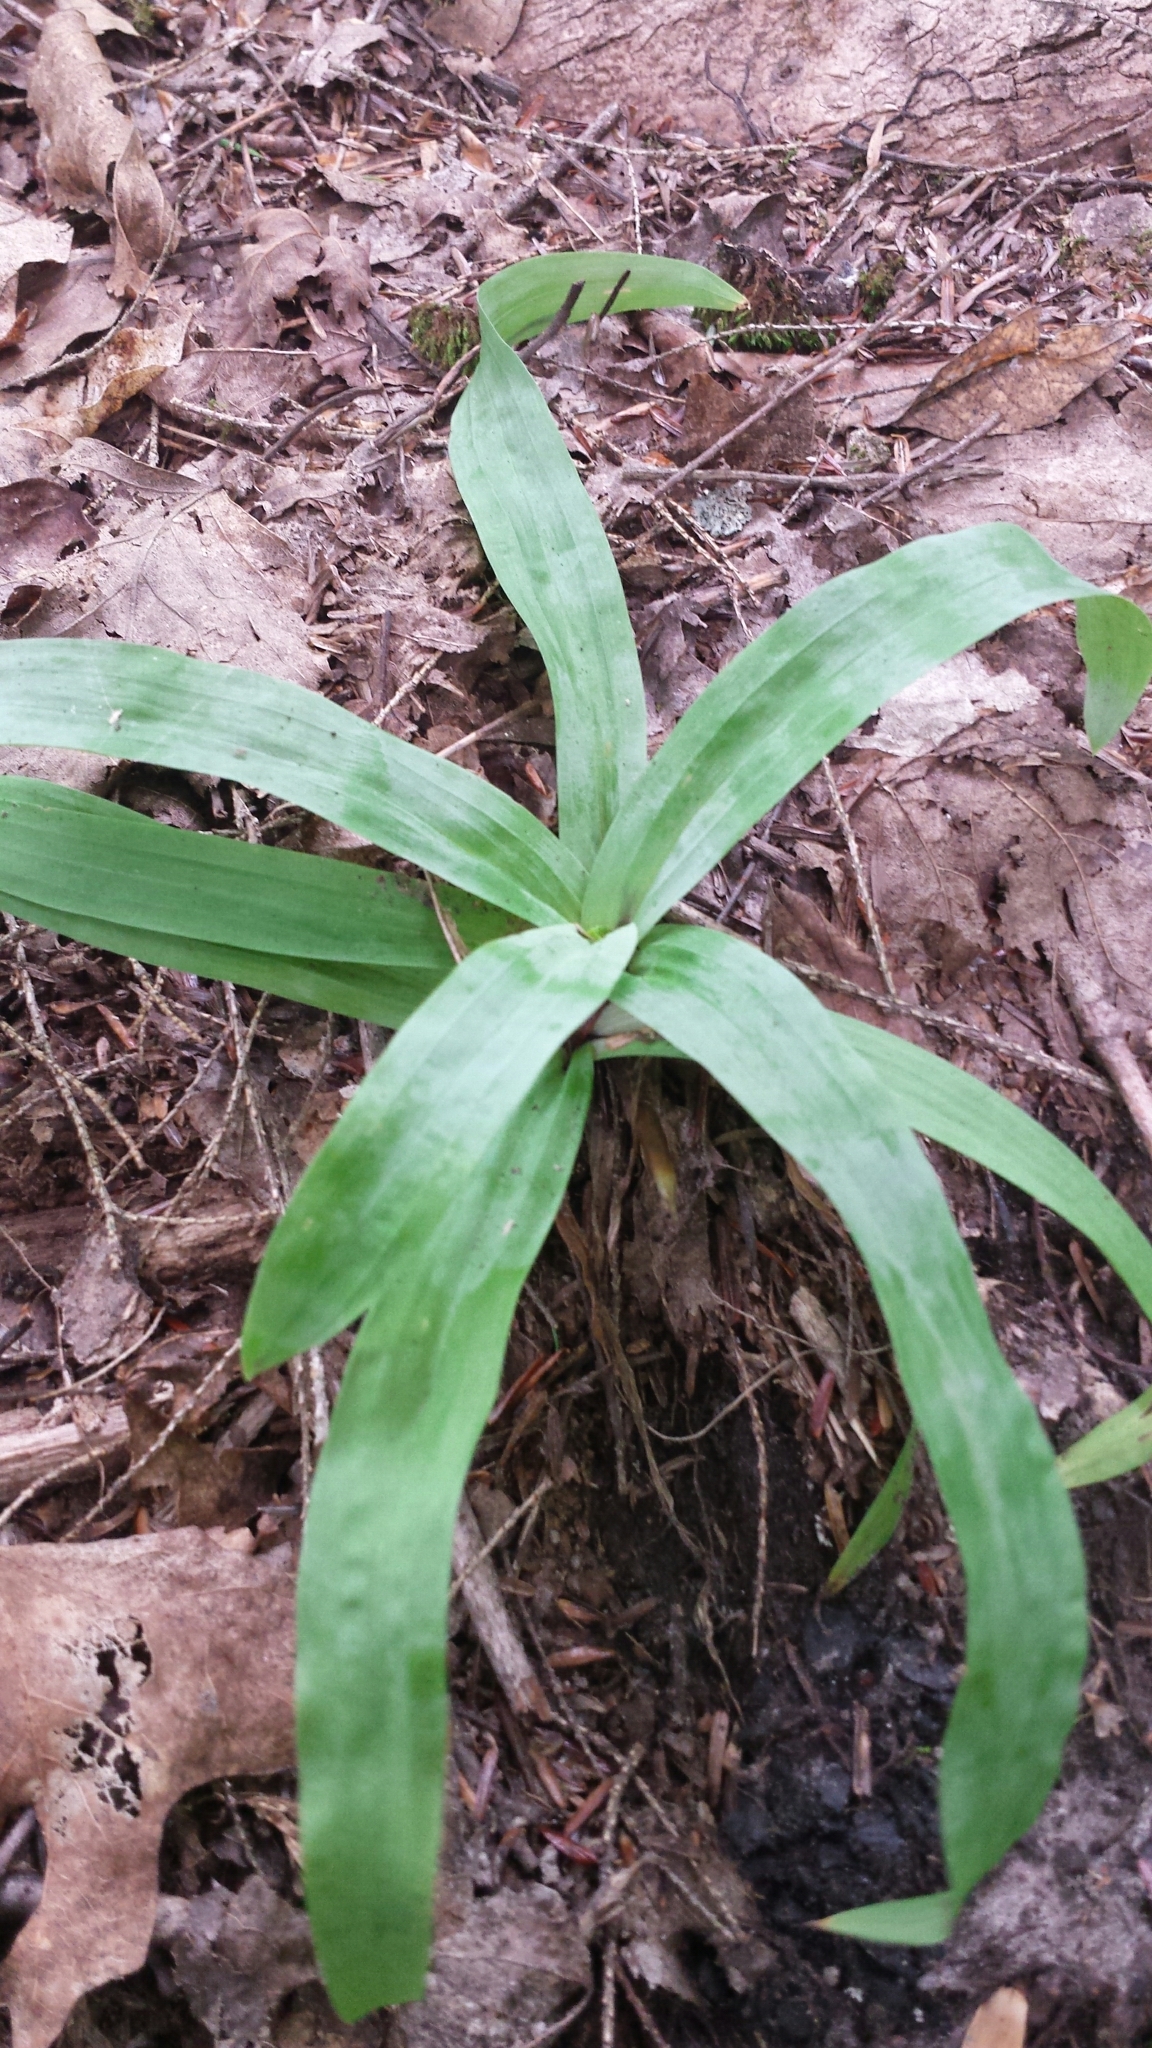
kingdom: Plantae
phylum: Tracheophyta
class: Liliopsida
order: Poales
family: Cyperaceae
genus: Carex
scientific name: Carex platyphylla
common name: Broad-leaved sedge
